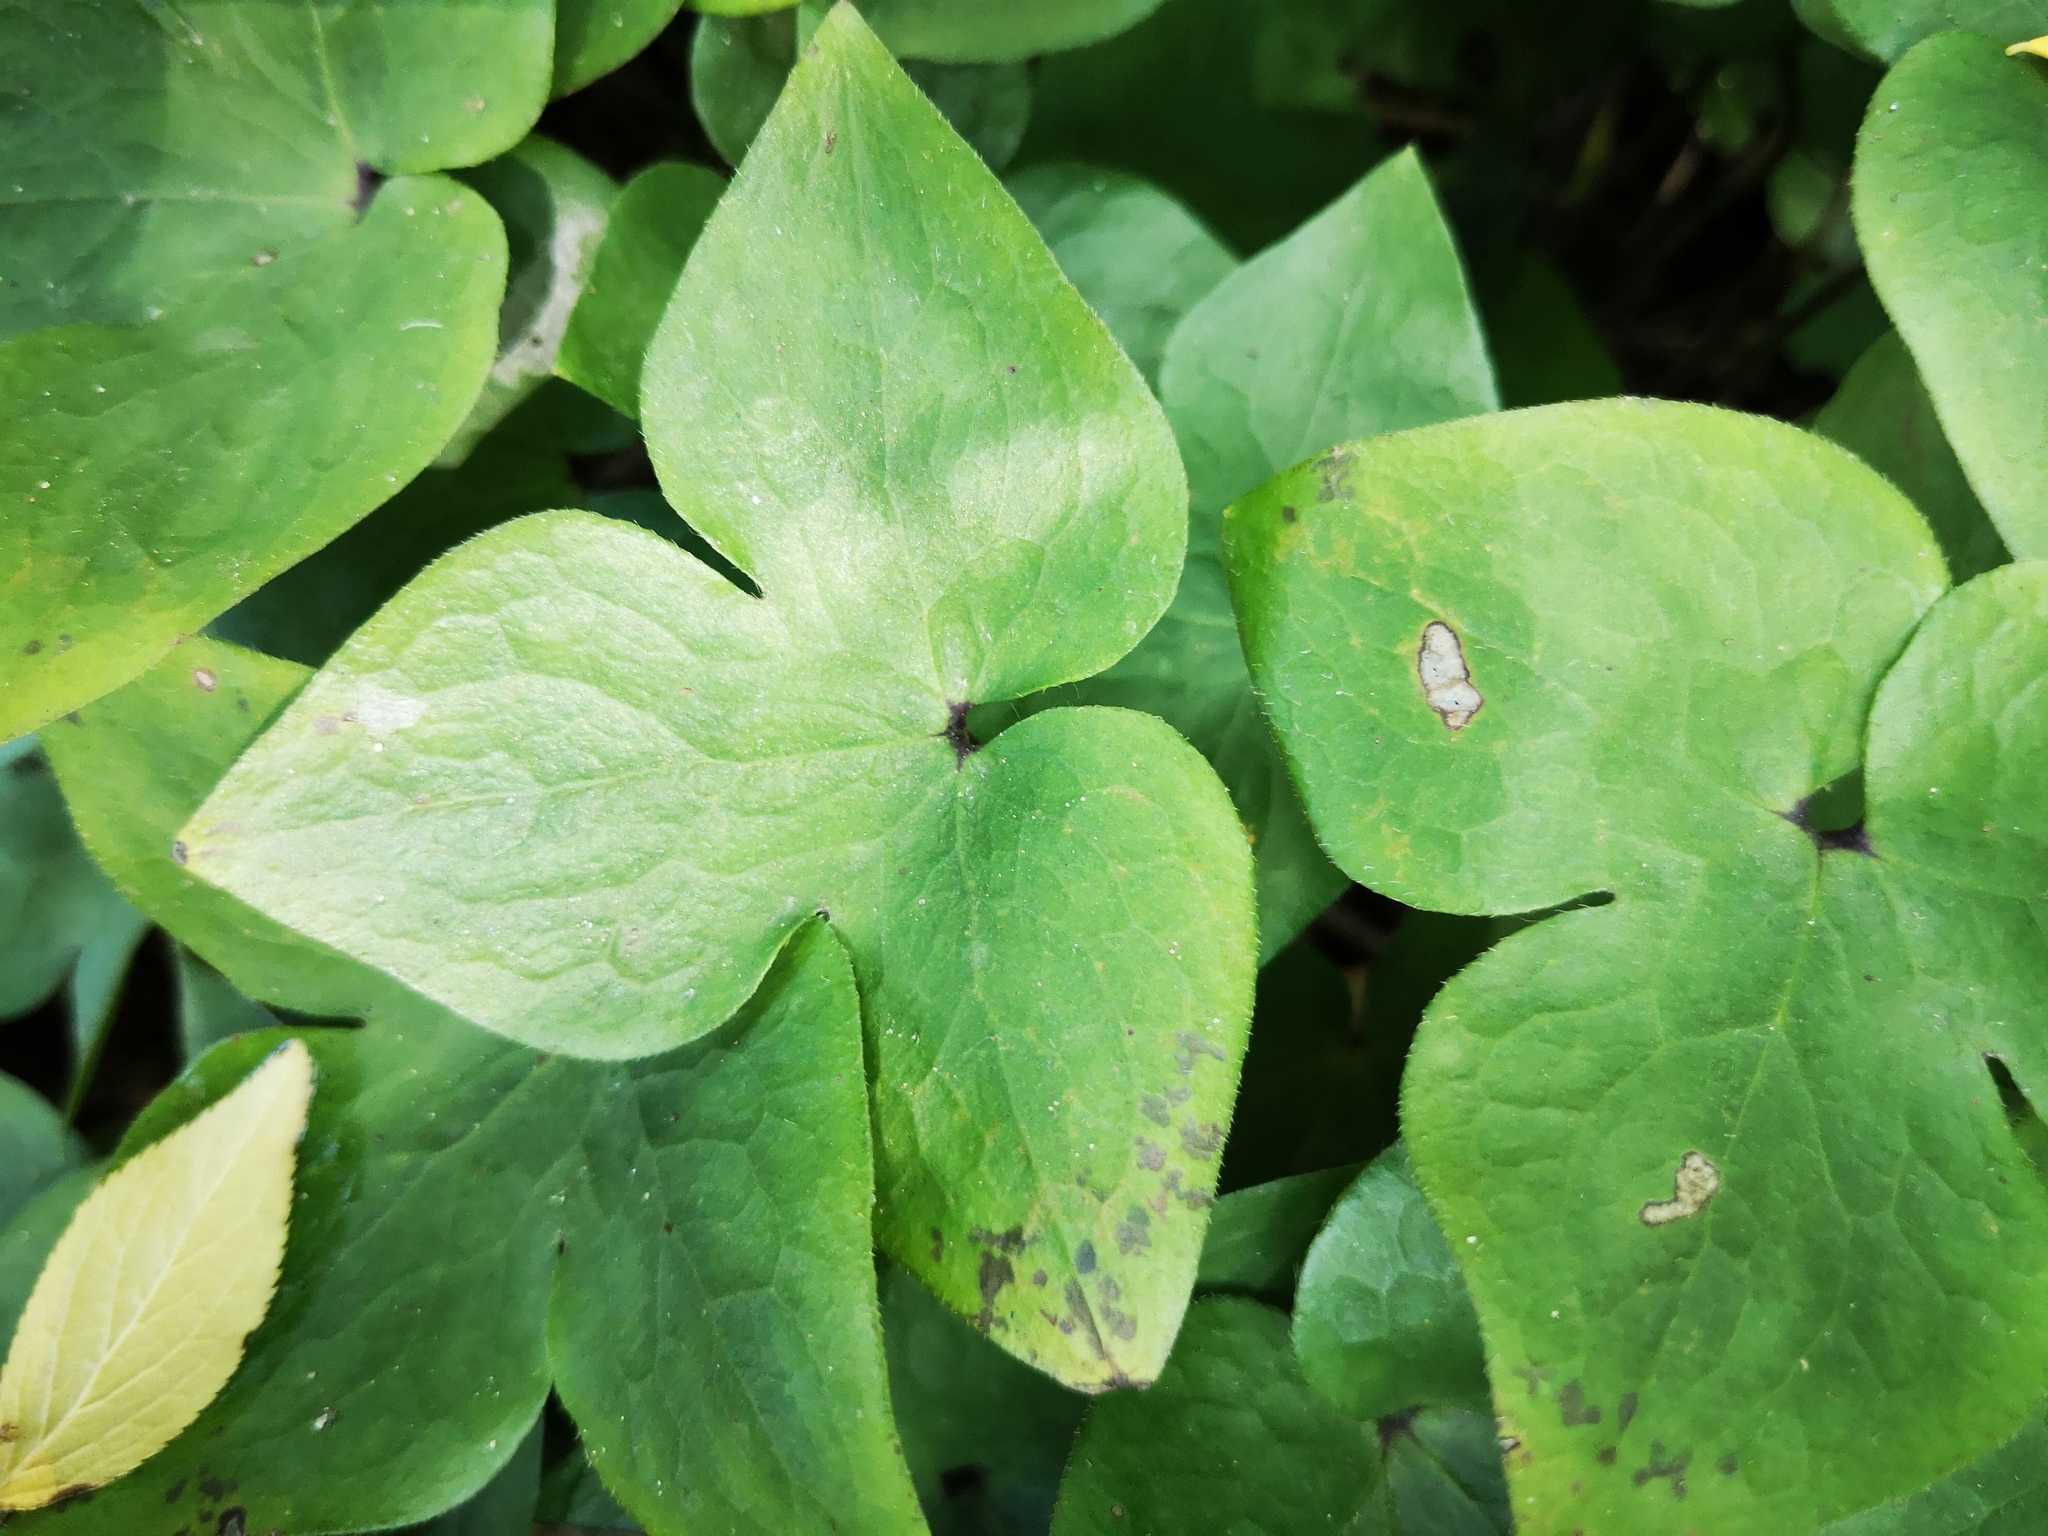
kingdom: Plantae
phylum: Tracheophyta
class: Magnoliopsida
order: Ranunculales
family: Ranunculaceae
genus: Hepatica
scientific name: Hepatica acutiloba
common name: Sharp-lobed hepatica
